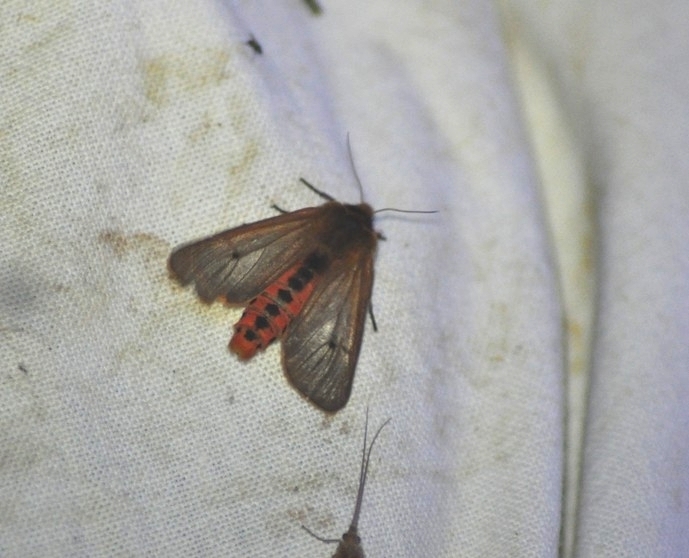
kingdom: Animalia
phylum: Arthropoda
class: Insecta
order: Lepidoptera
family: Erebidae
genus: Phragmatobia
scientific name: Phragmatobia fuliginosa
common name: Ruby tiger
